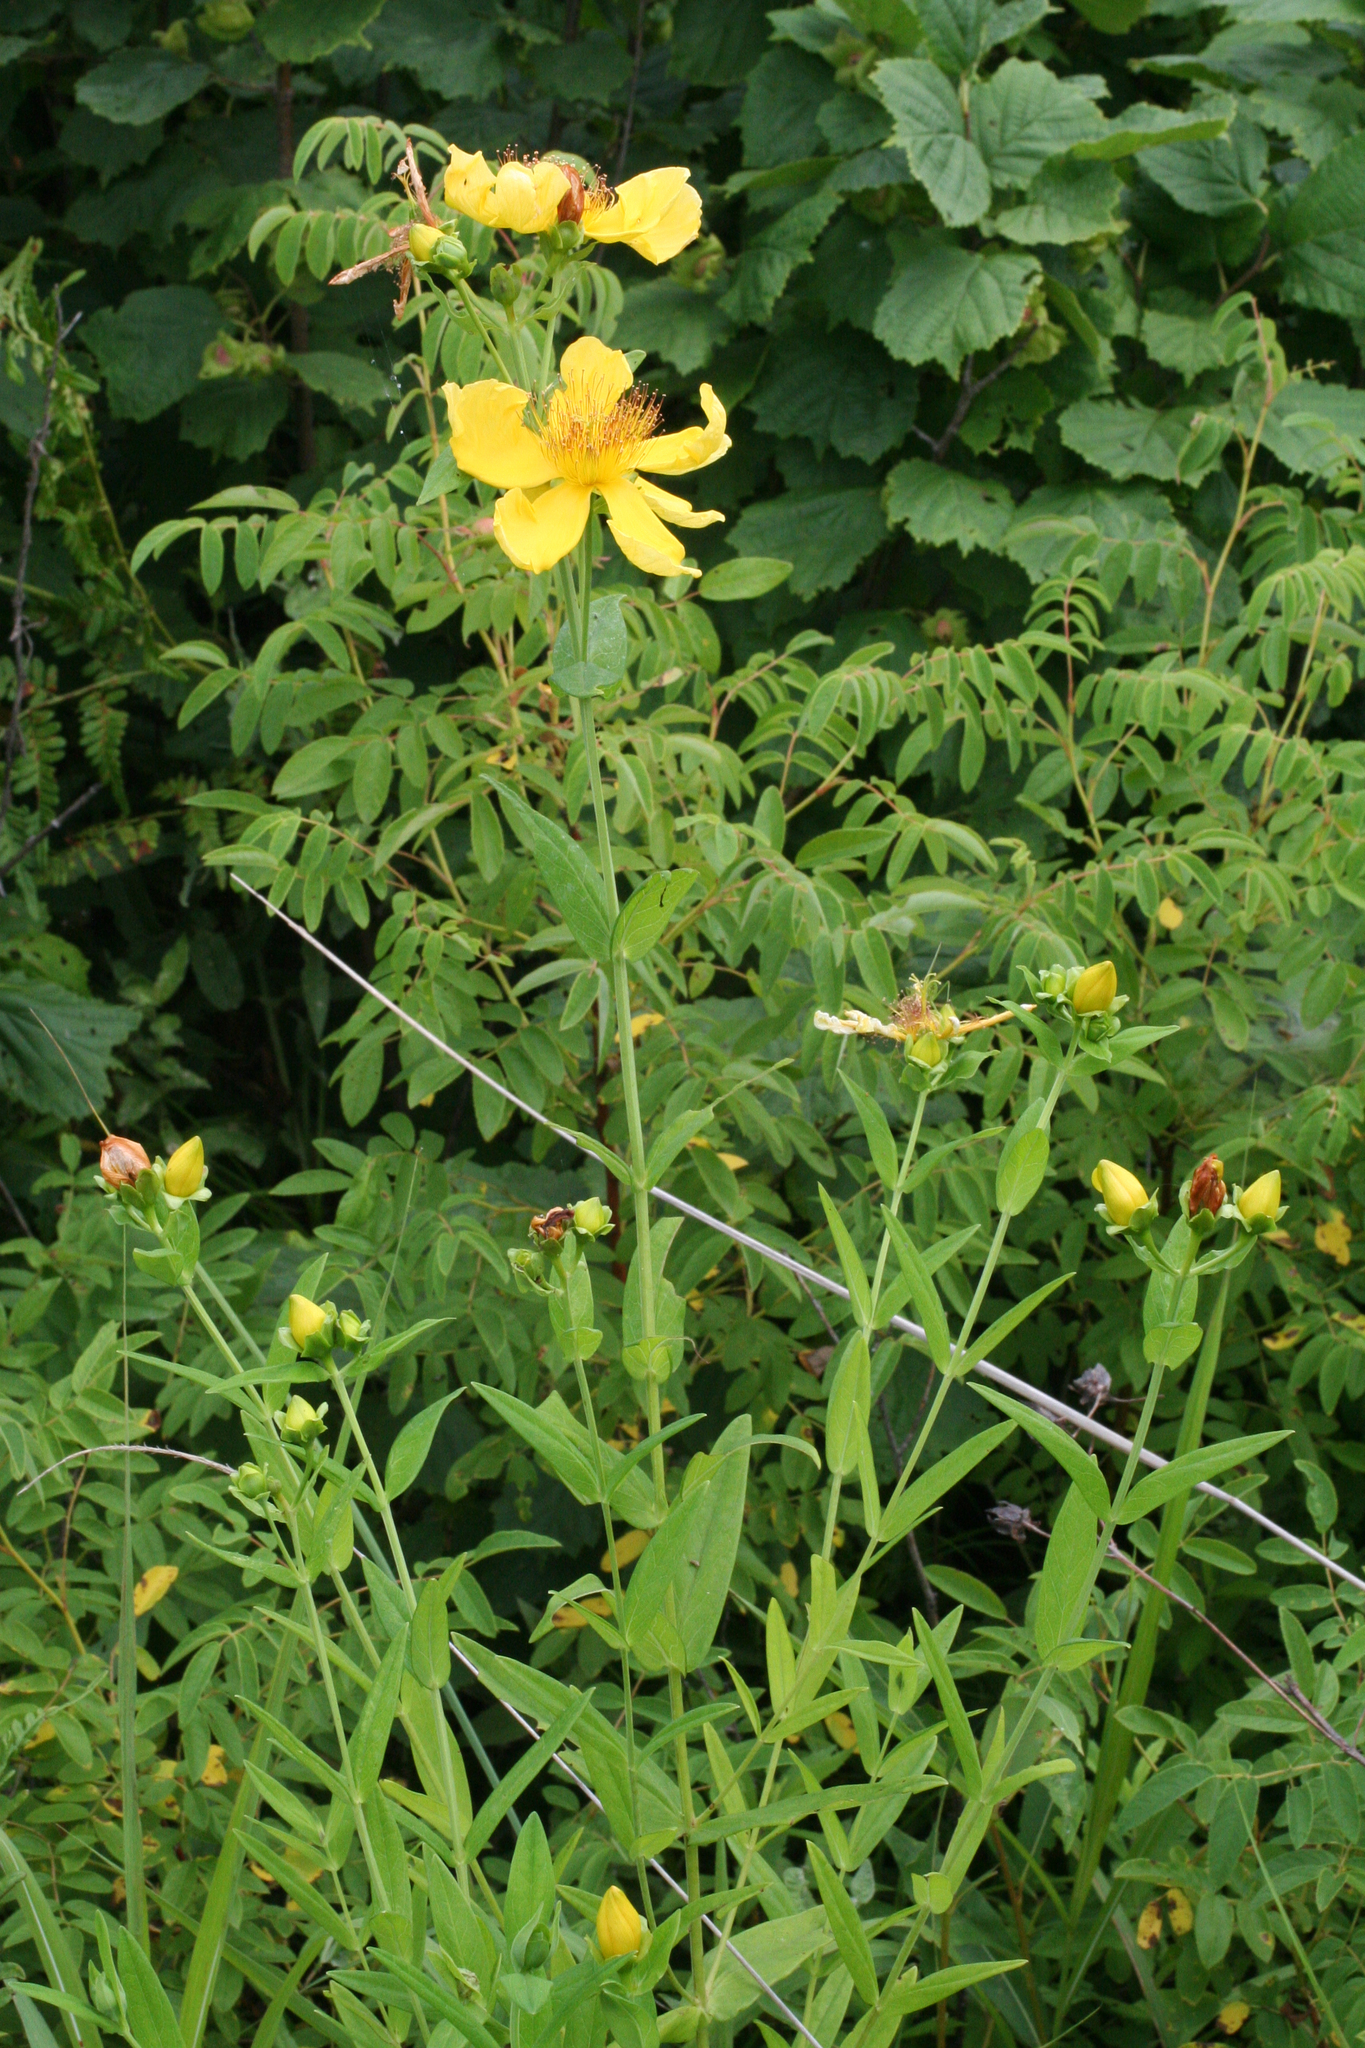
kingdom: Plantae
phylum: Tracheophyta
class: Magnoliopsida
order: Malpighiales
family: Hypericaceae
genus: Hypericum
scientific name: Hypericum ascyron
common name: Giant st. john's-wort
